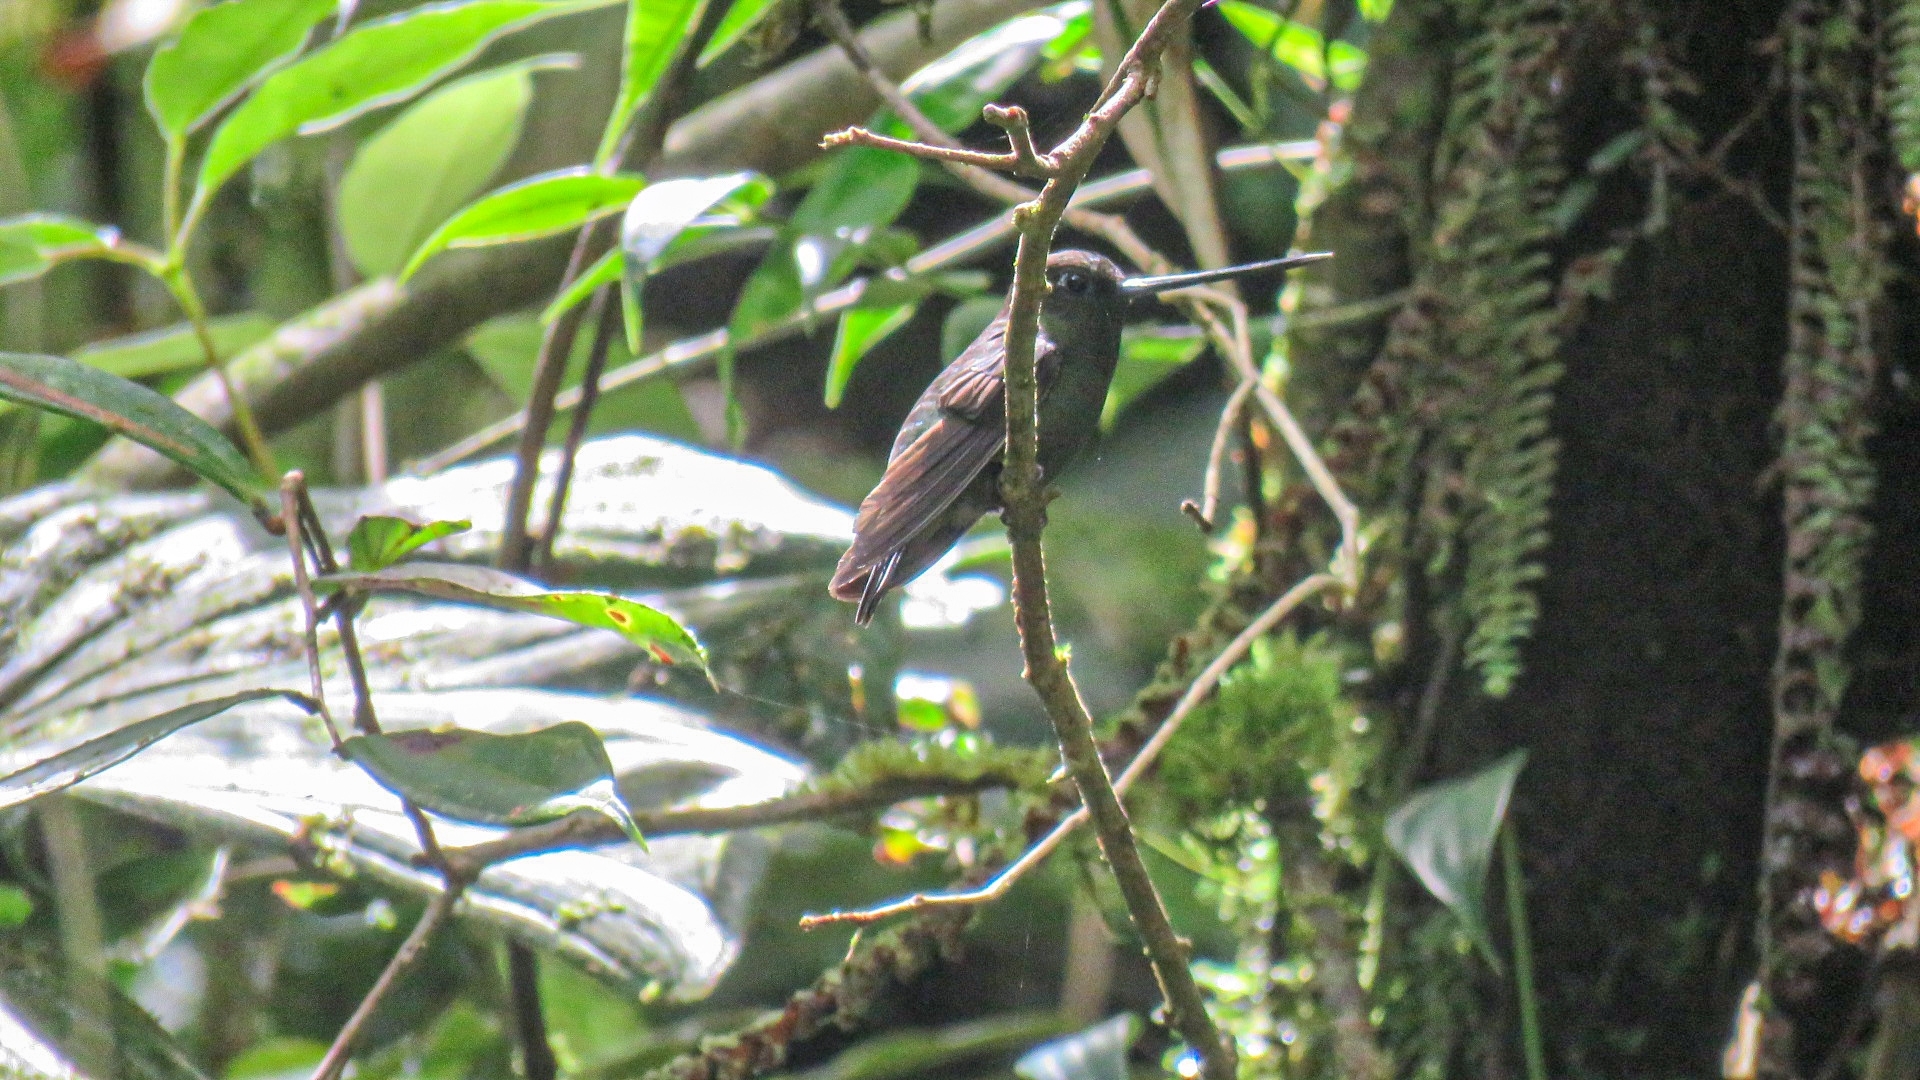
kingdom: Animalia
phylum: Chordata
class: Aves
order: Apodiformes
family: Trochilidae
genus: Doryfera
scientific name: Doryfera ludovicae
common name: Green-fronted lancebill
